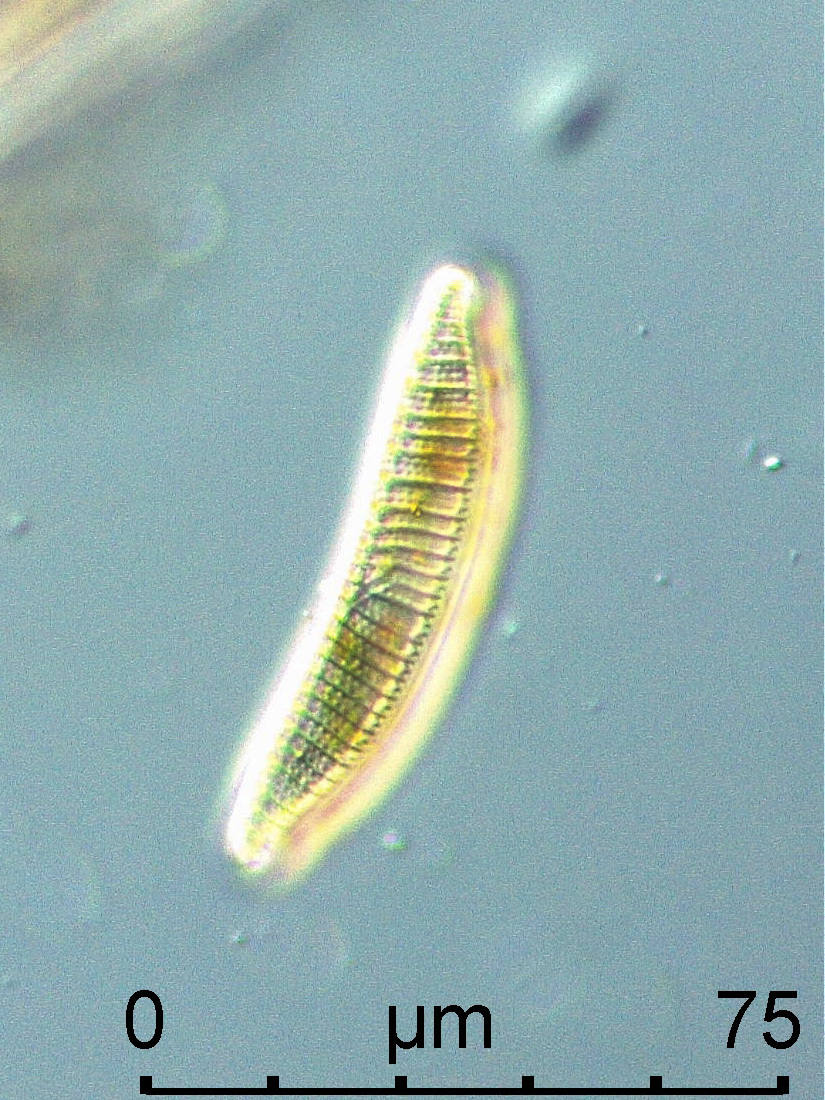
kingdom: Chromista
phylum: Ochrophyta
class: Bacillariophyceae
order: Naviculales
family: Naviculaceae
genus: Navicula
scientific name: Navicula turgida
